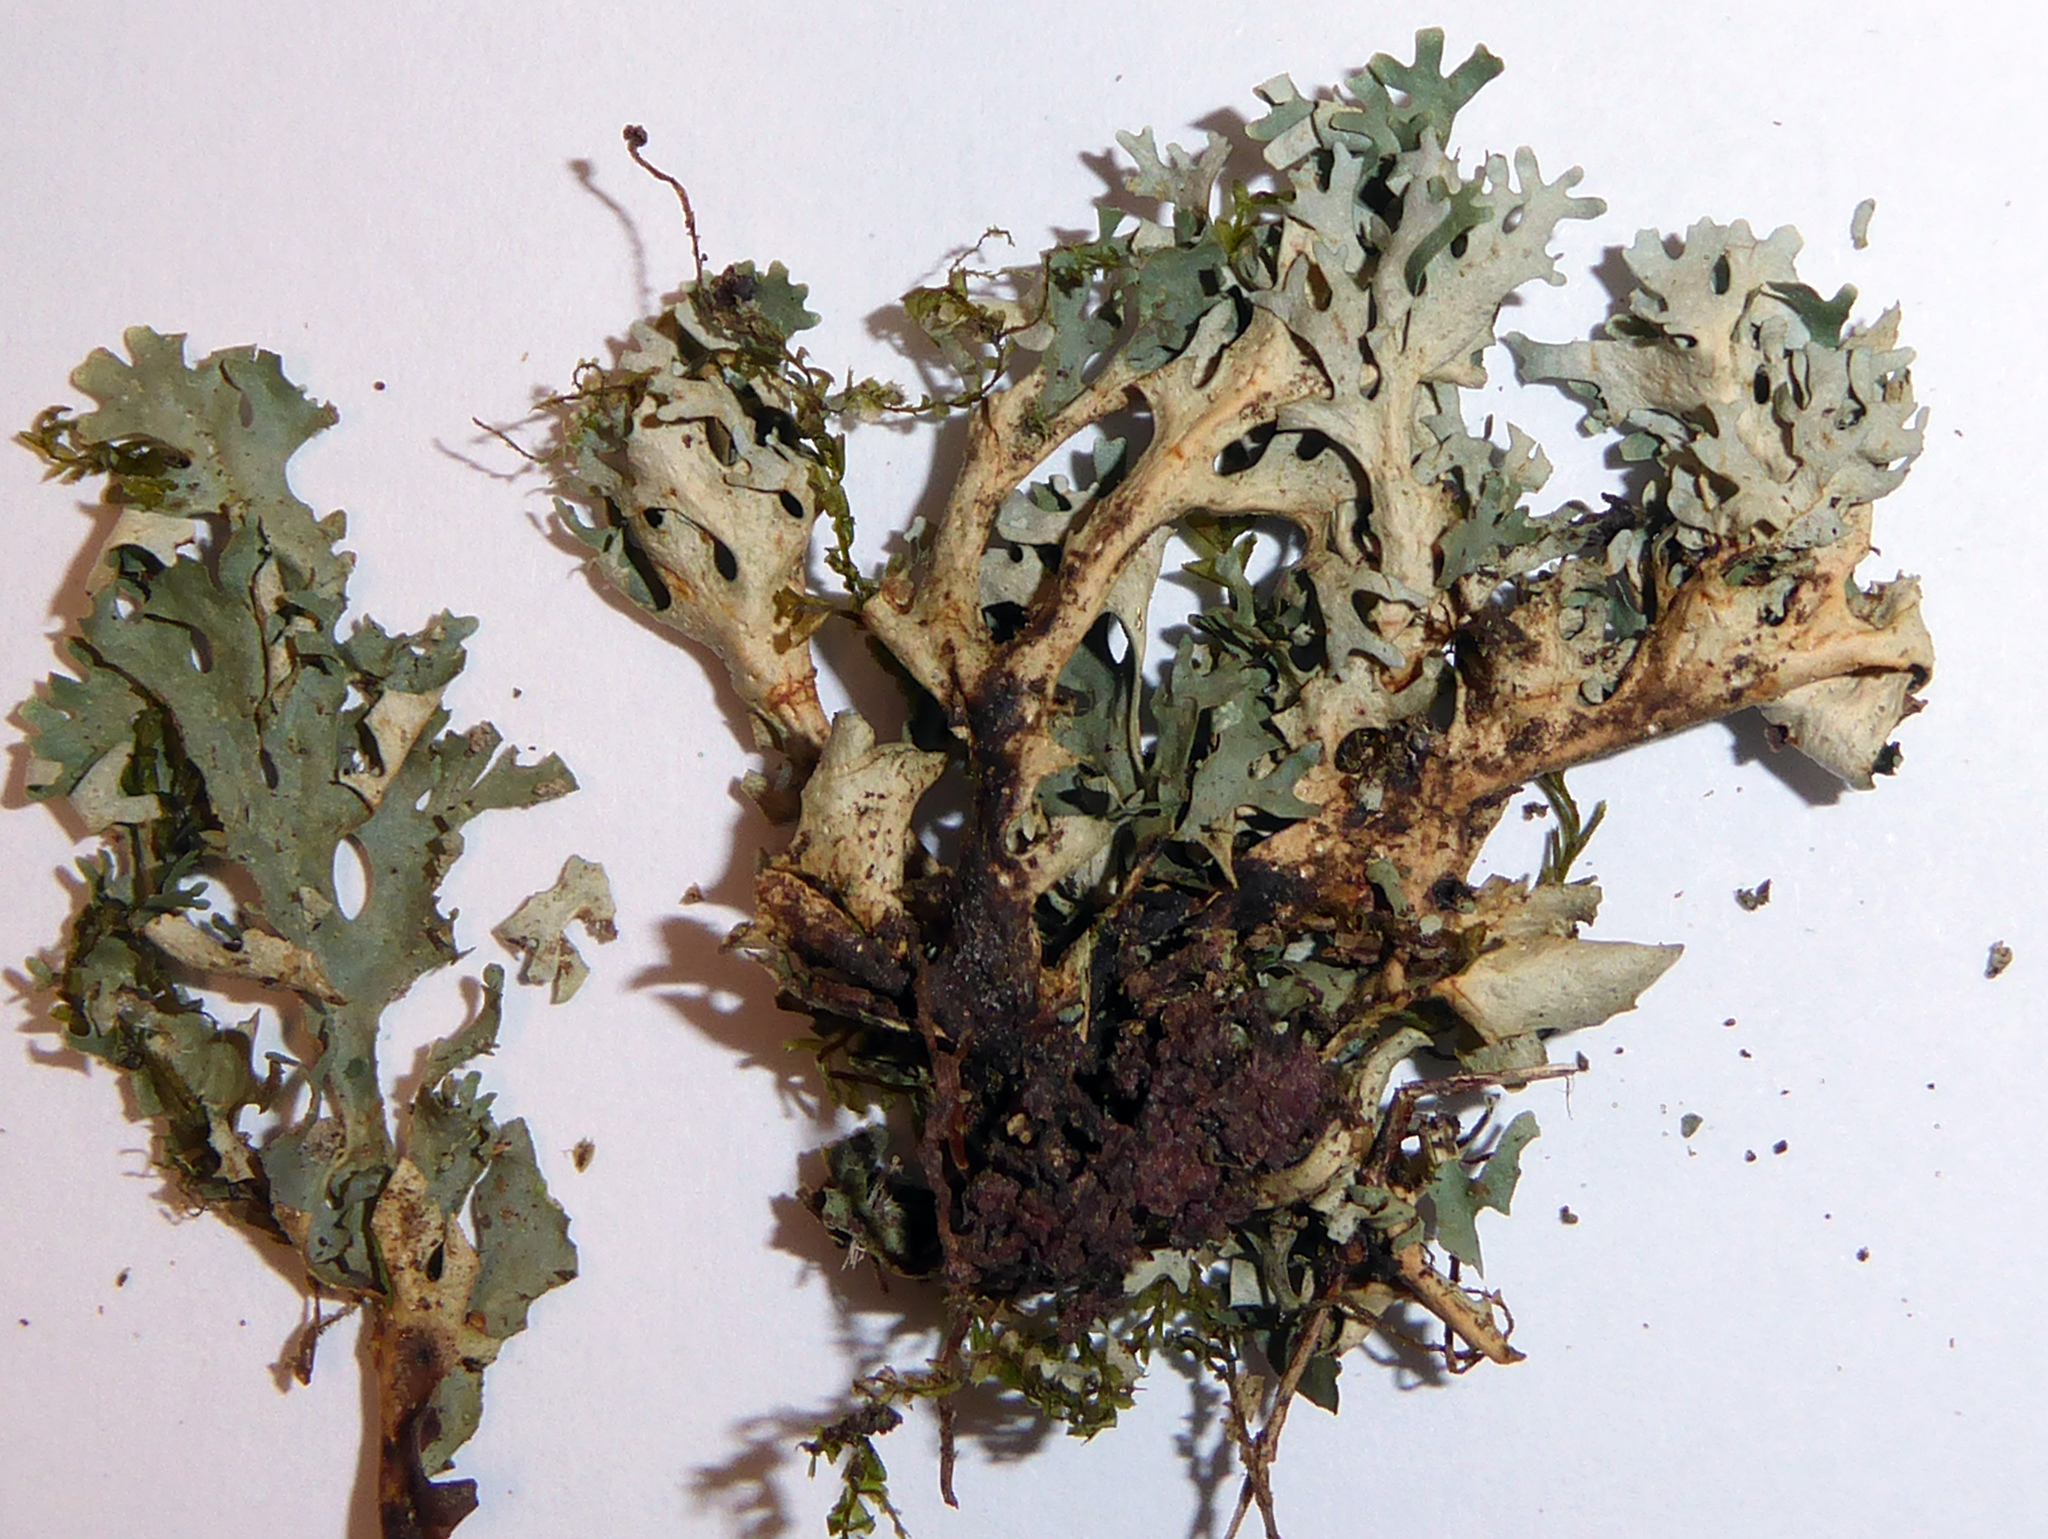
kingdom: Fungi
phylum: Ascomycota
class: Lecanoromycetes
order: Peltigerales
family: Lobariaceae
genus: Sticta
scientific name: Sticta
